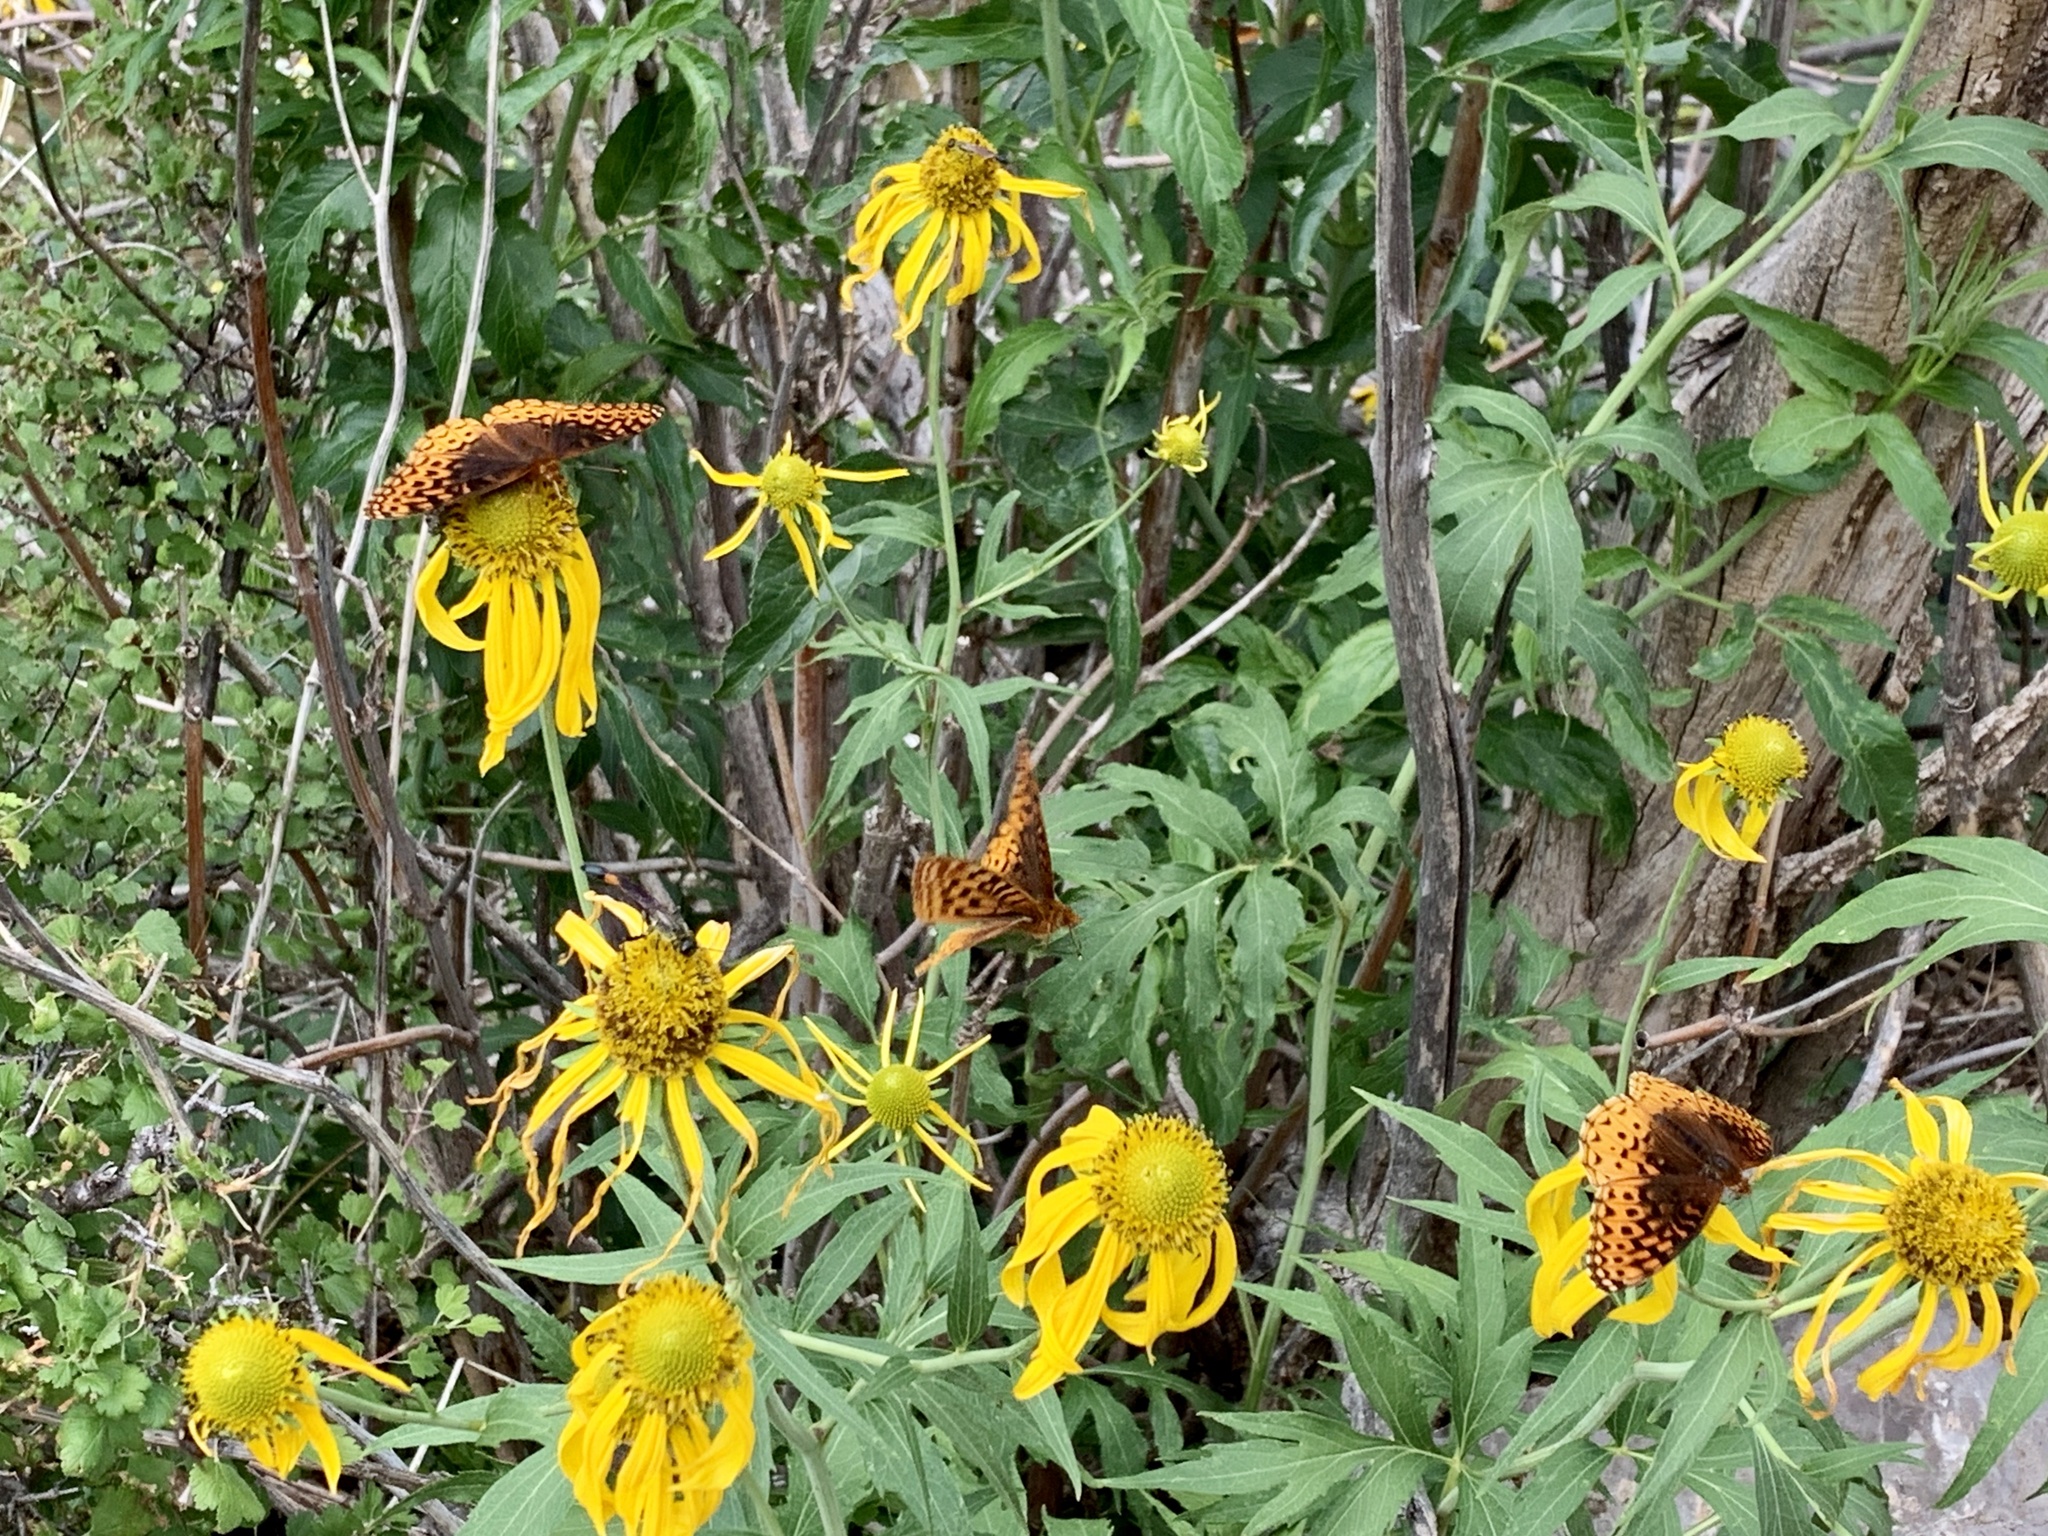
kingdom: Animalia
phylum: Arthropoda
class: Insecta
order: Lepidoptera
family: Nymphalidae
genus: Speyeria
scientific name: Speyeria atlantis
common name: Atlantis fritillary
